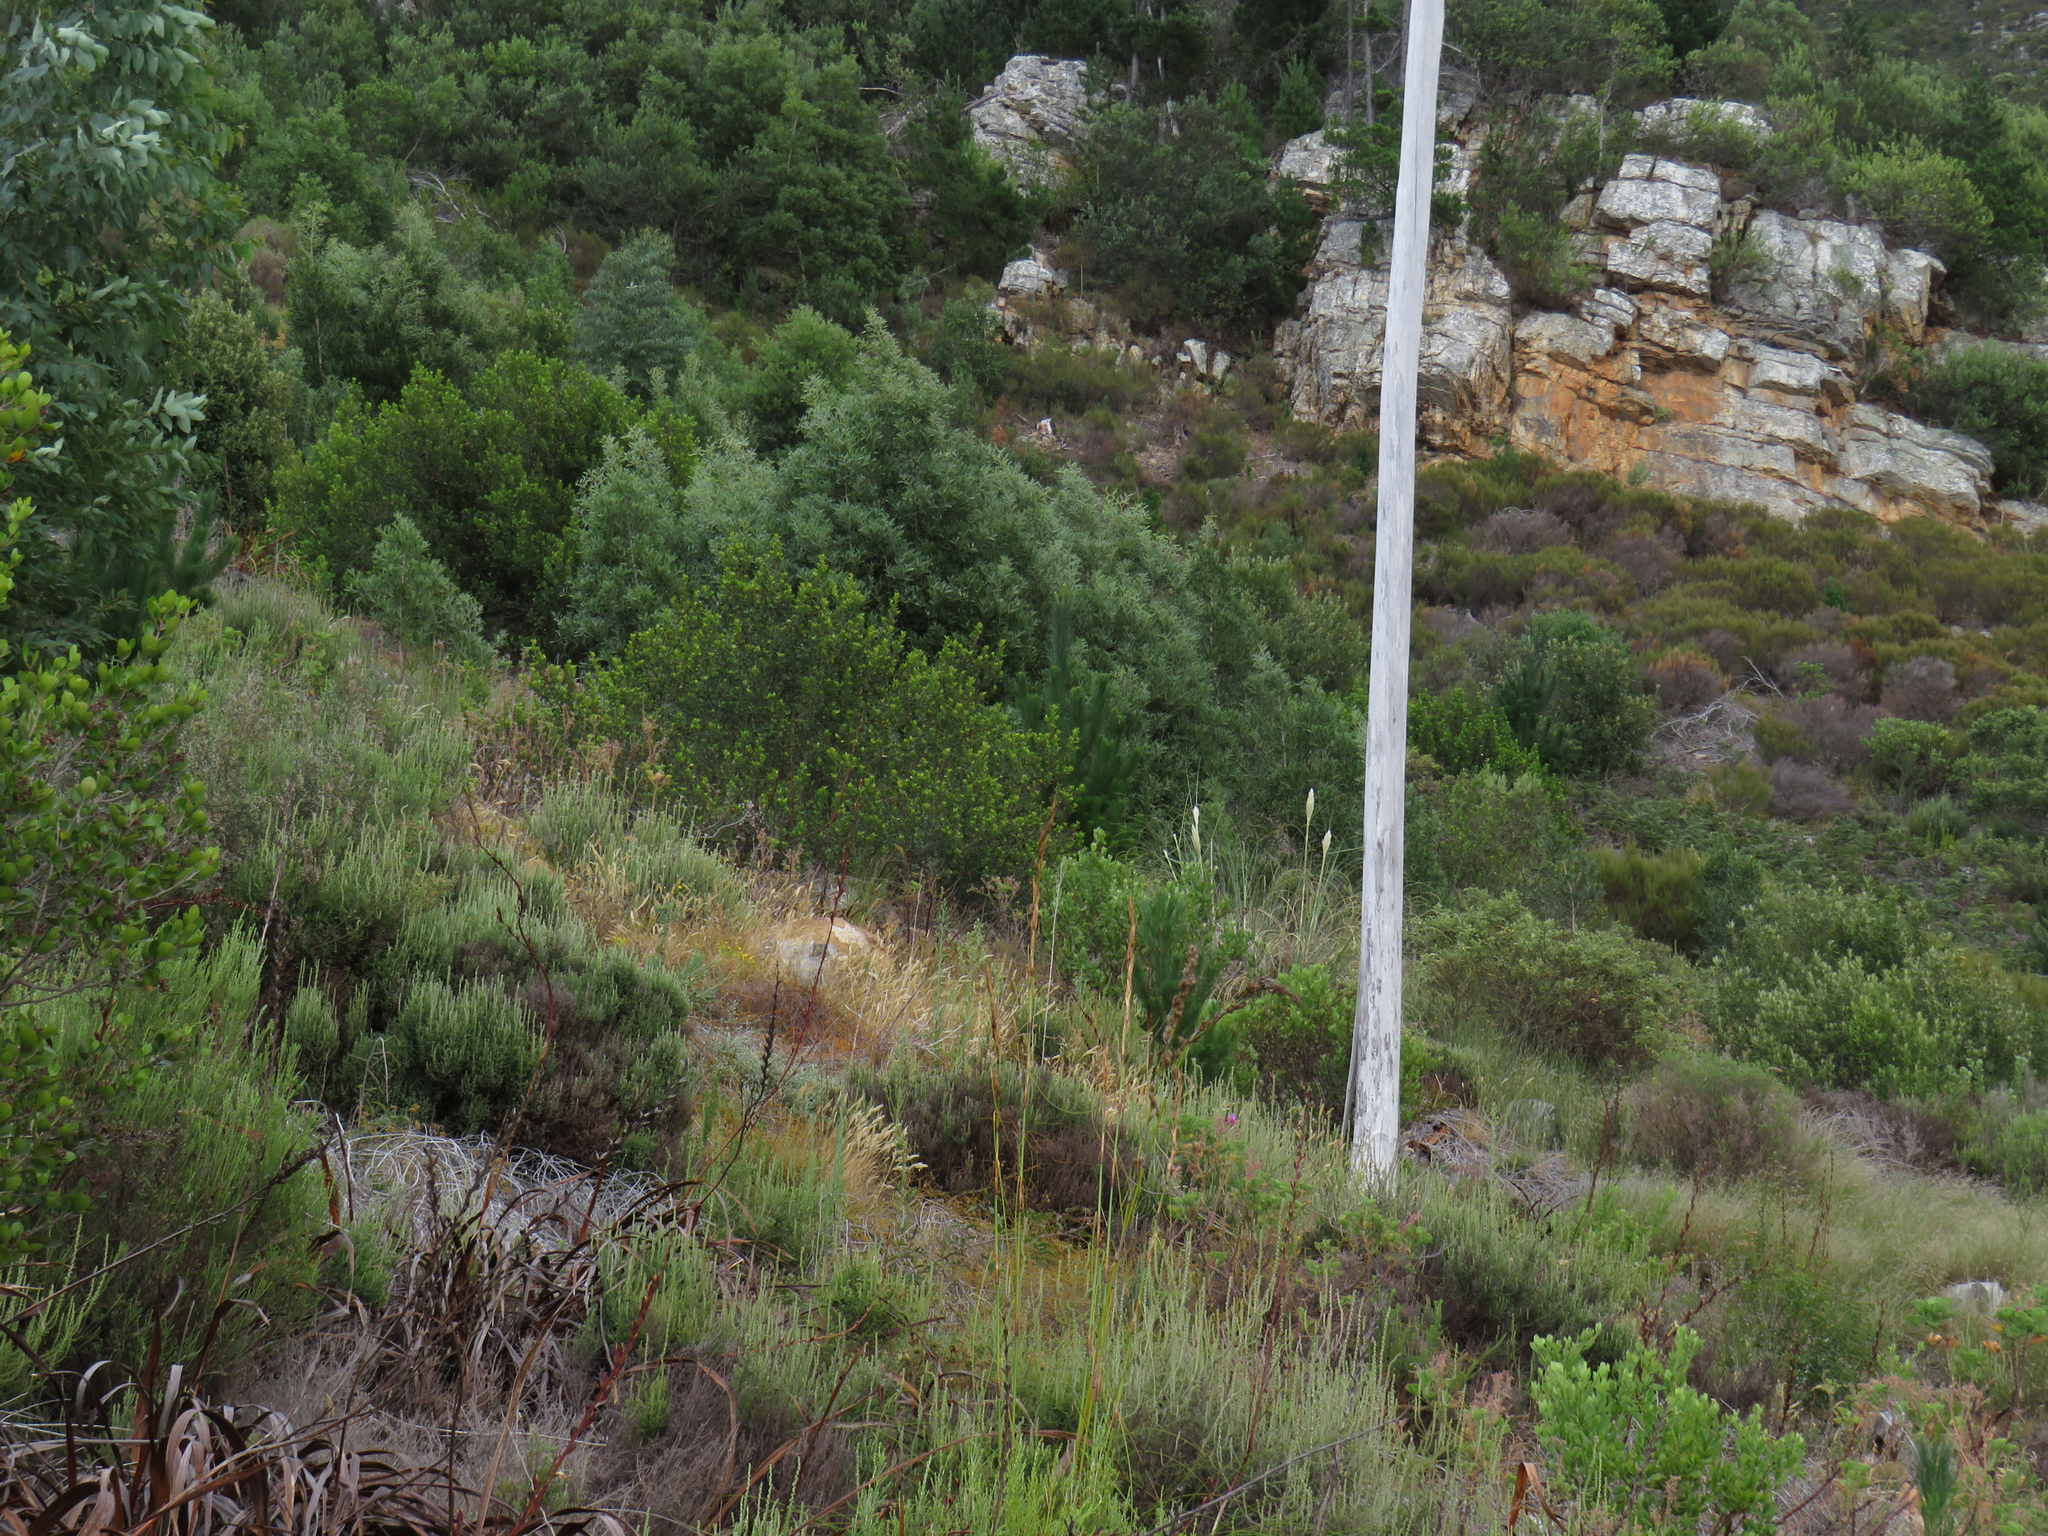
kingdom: Plantae
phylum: Tracheophyta
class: Liliopsida
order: Poales
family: Poaceae
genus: Cortaderia
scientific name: Cortaderia selloana
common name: Uruguayan pampas grass
